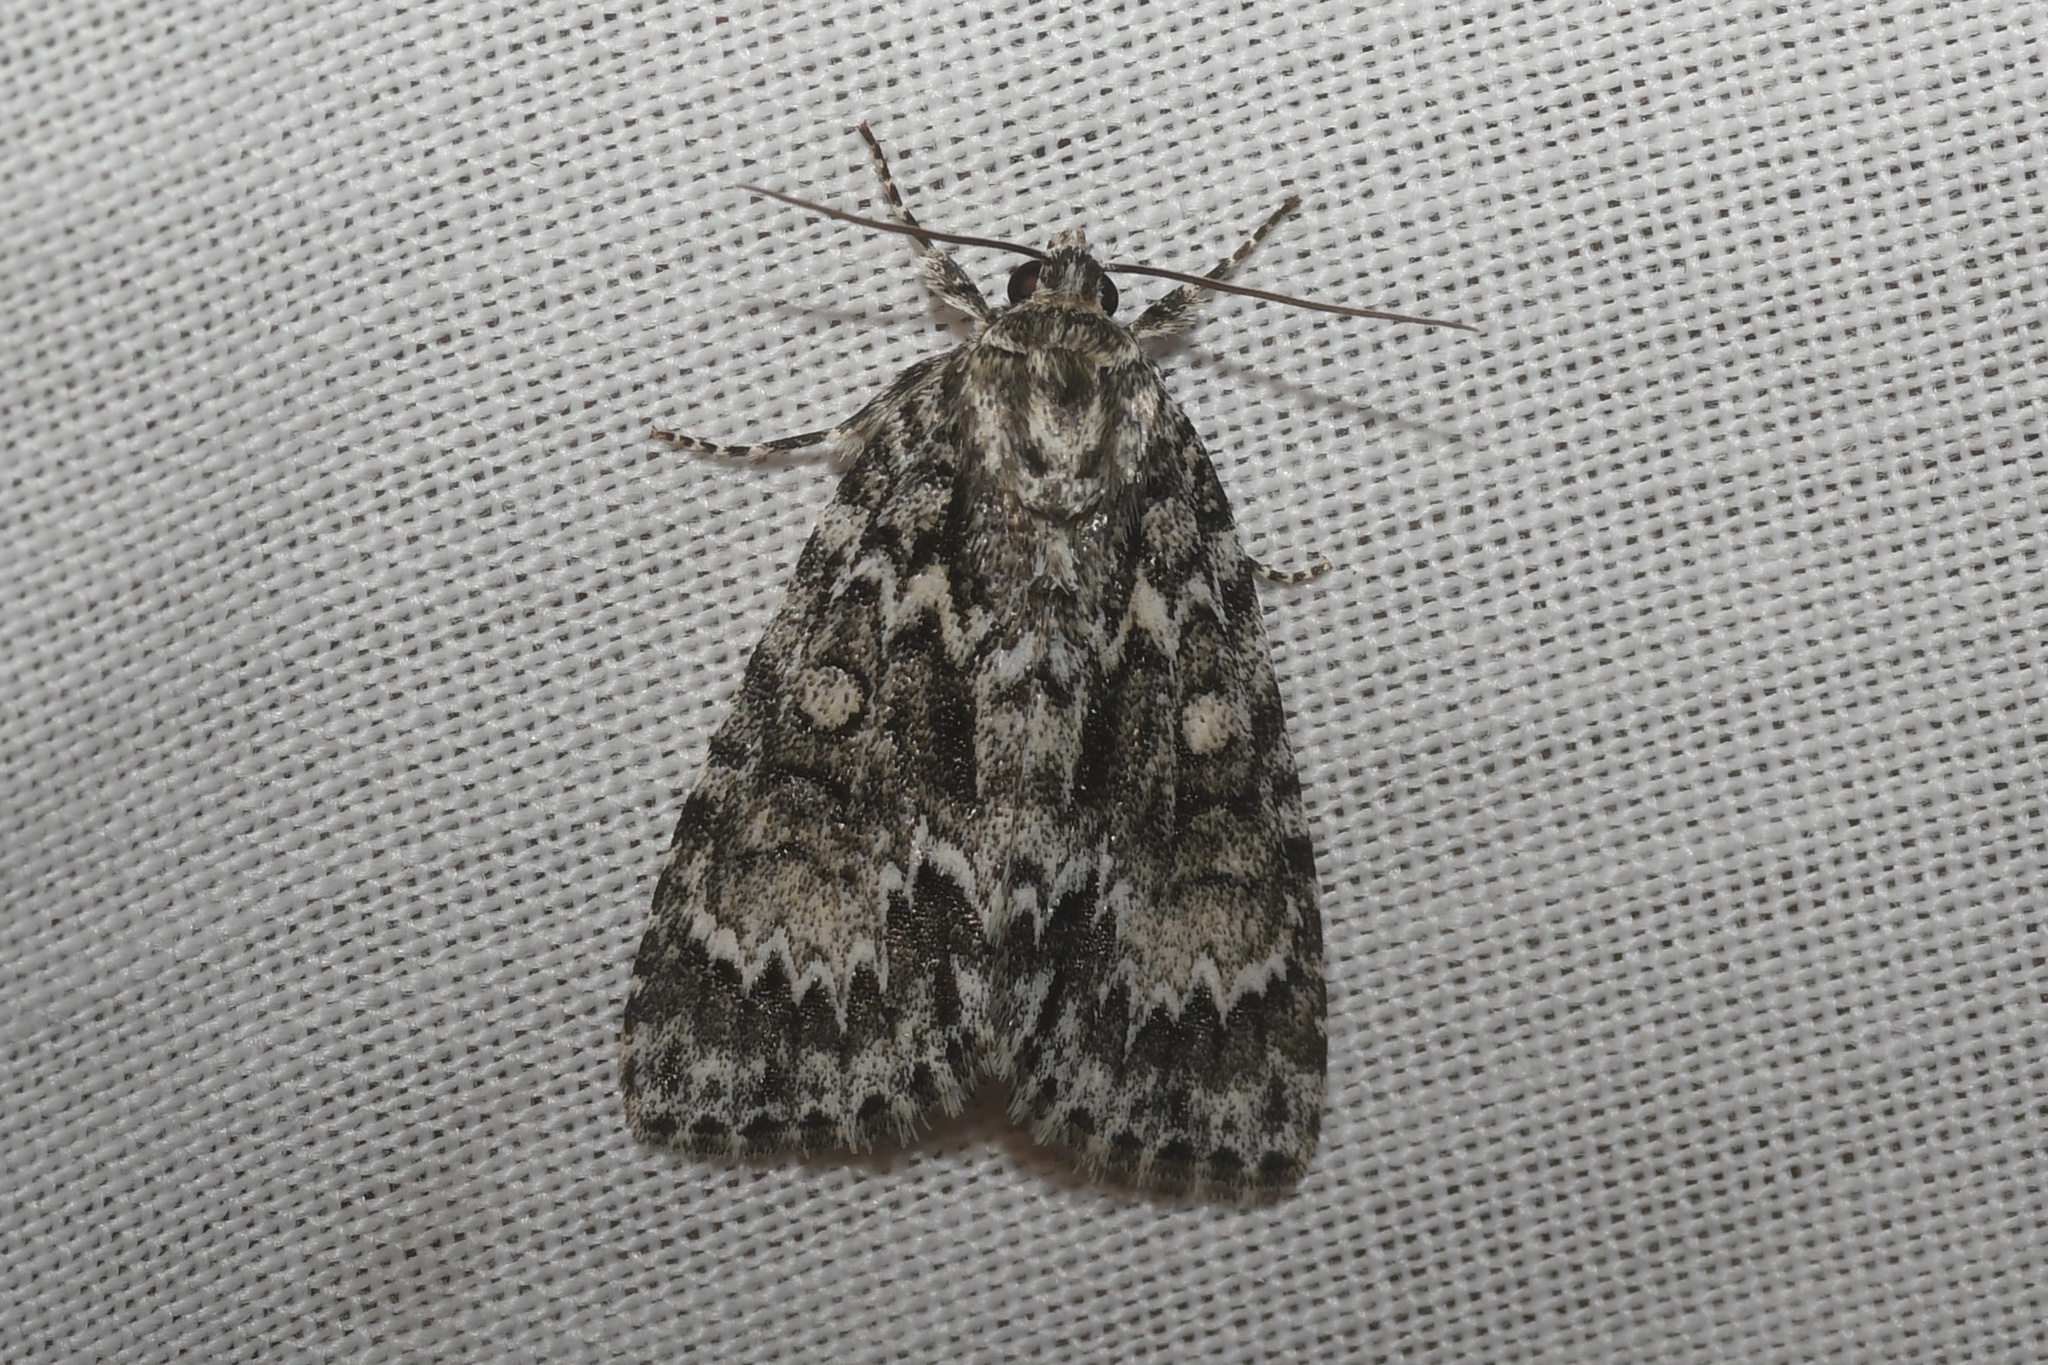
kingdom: Animalia
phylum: Arthropoda
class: Insecta
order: Lepidoptera
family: Noctuidae
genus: Acronicta
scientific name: Acronicta fragilis
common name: Fragile dagger
